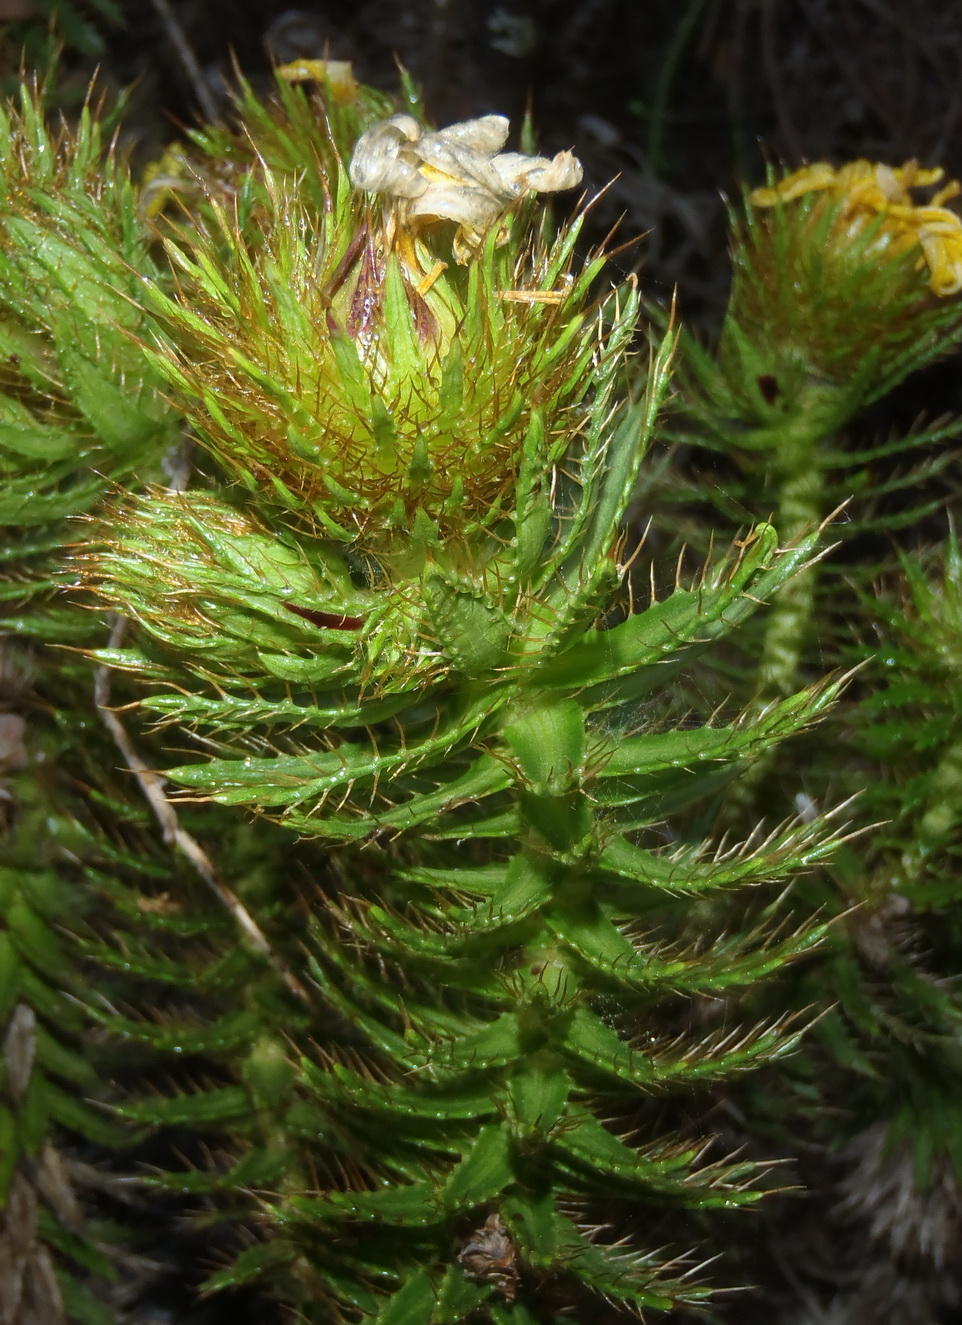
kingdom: Plantae
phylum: Tracheophyta
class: Magnoliopsida
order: Asterales
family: Asteraceae
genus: Cullumia
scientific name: Cullumia carlinoides
